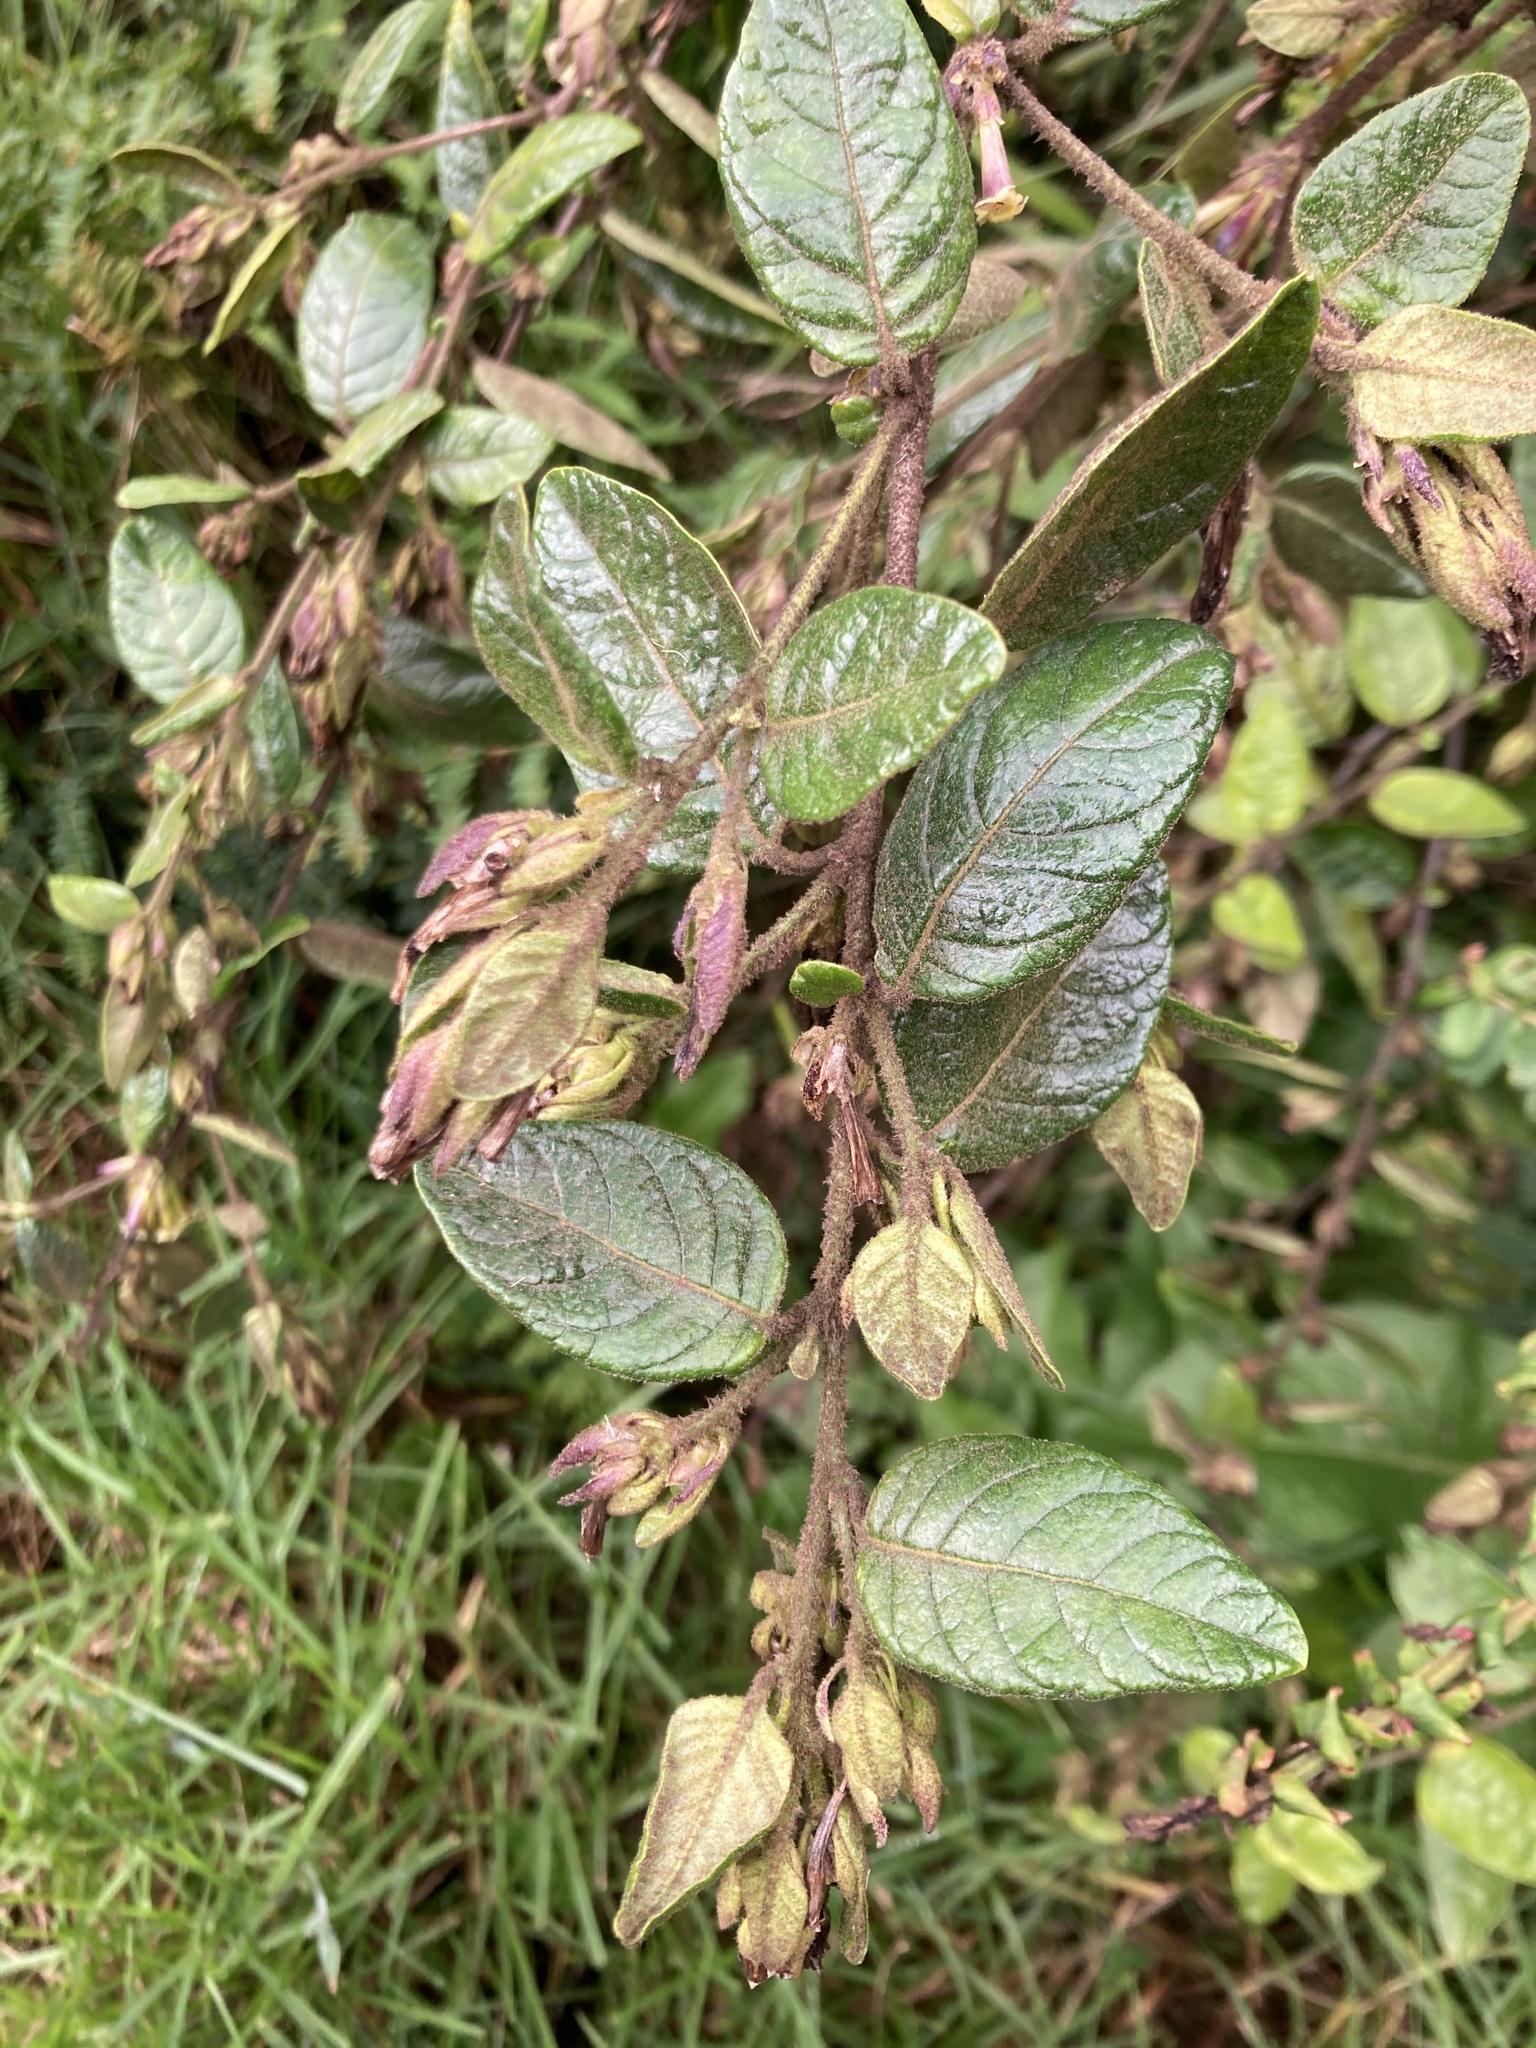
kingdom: Plantae
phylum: Tracheophyta
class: Magnoliopsida
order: Solanales
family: Solanaceae
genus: Cestrum
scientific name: Cestrum tomentosum
